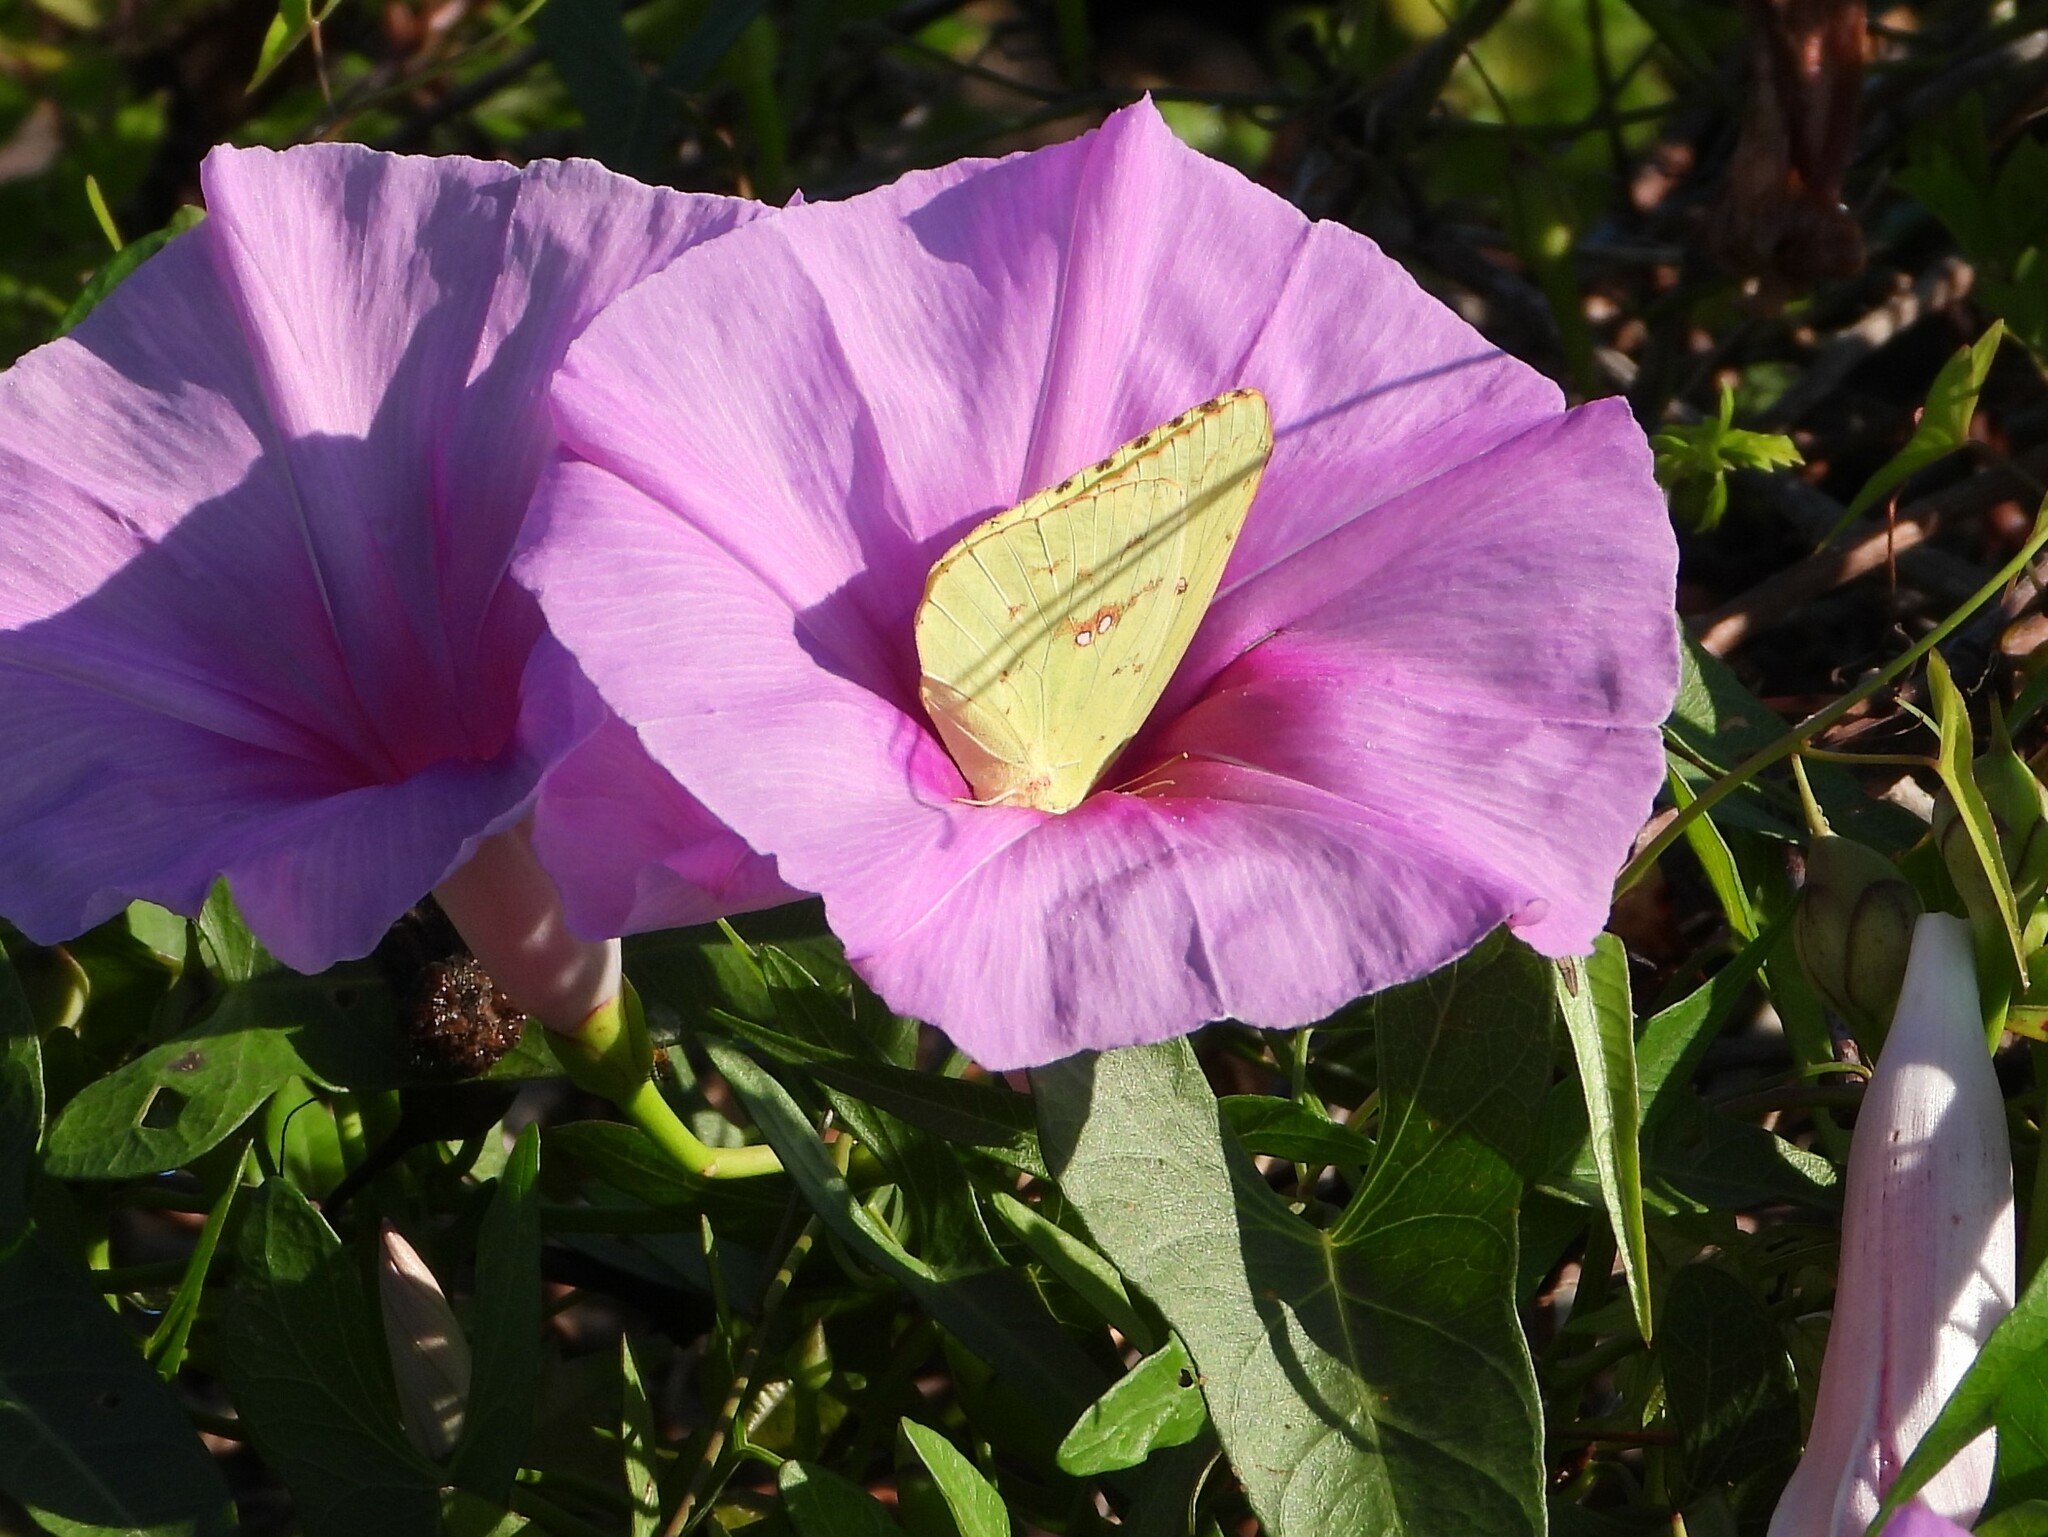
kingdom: Animalia
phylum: Arthropoda
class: Insecta
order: Lepidoptera
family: Pieridae
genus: Phoebis
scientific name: Phoebis sennae
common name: Cloudless sulphur
